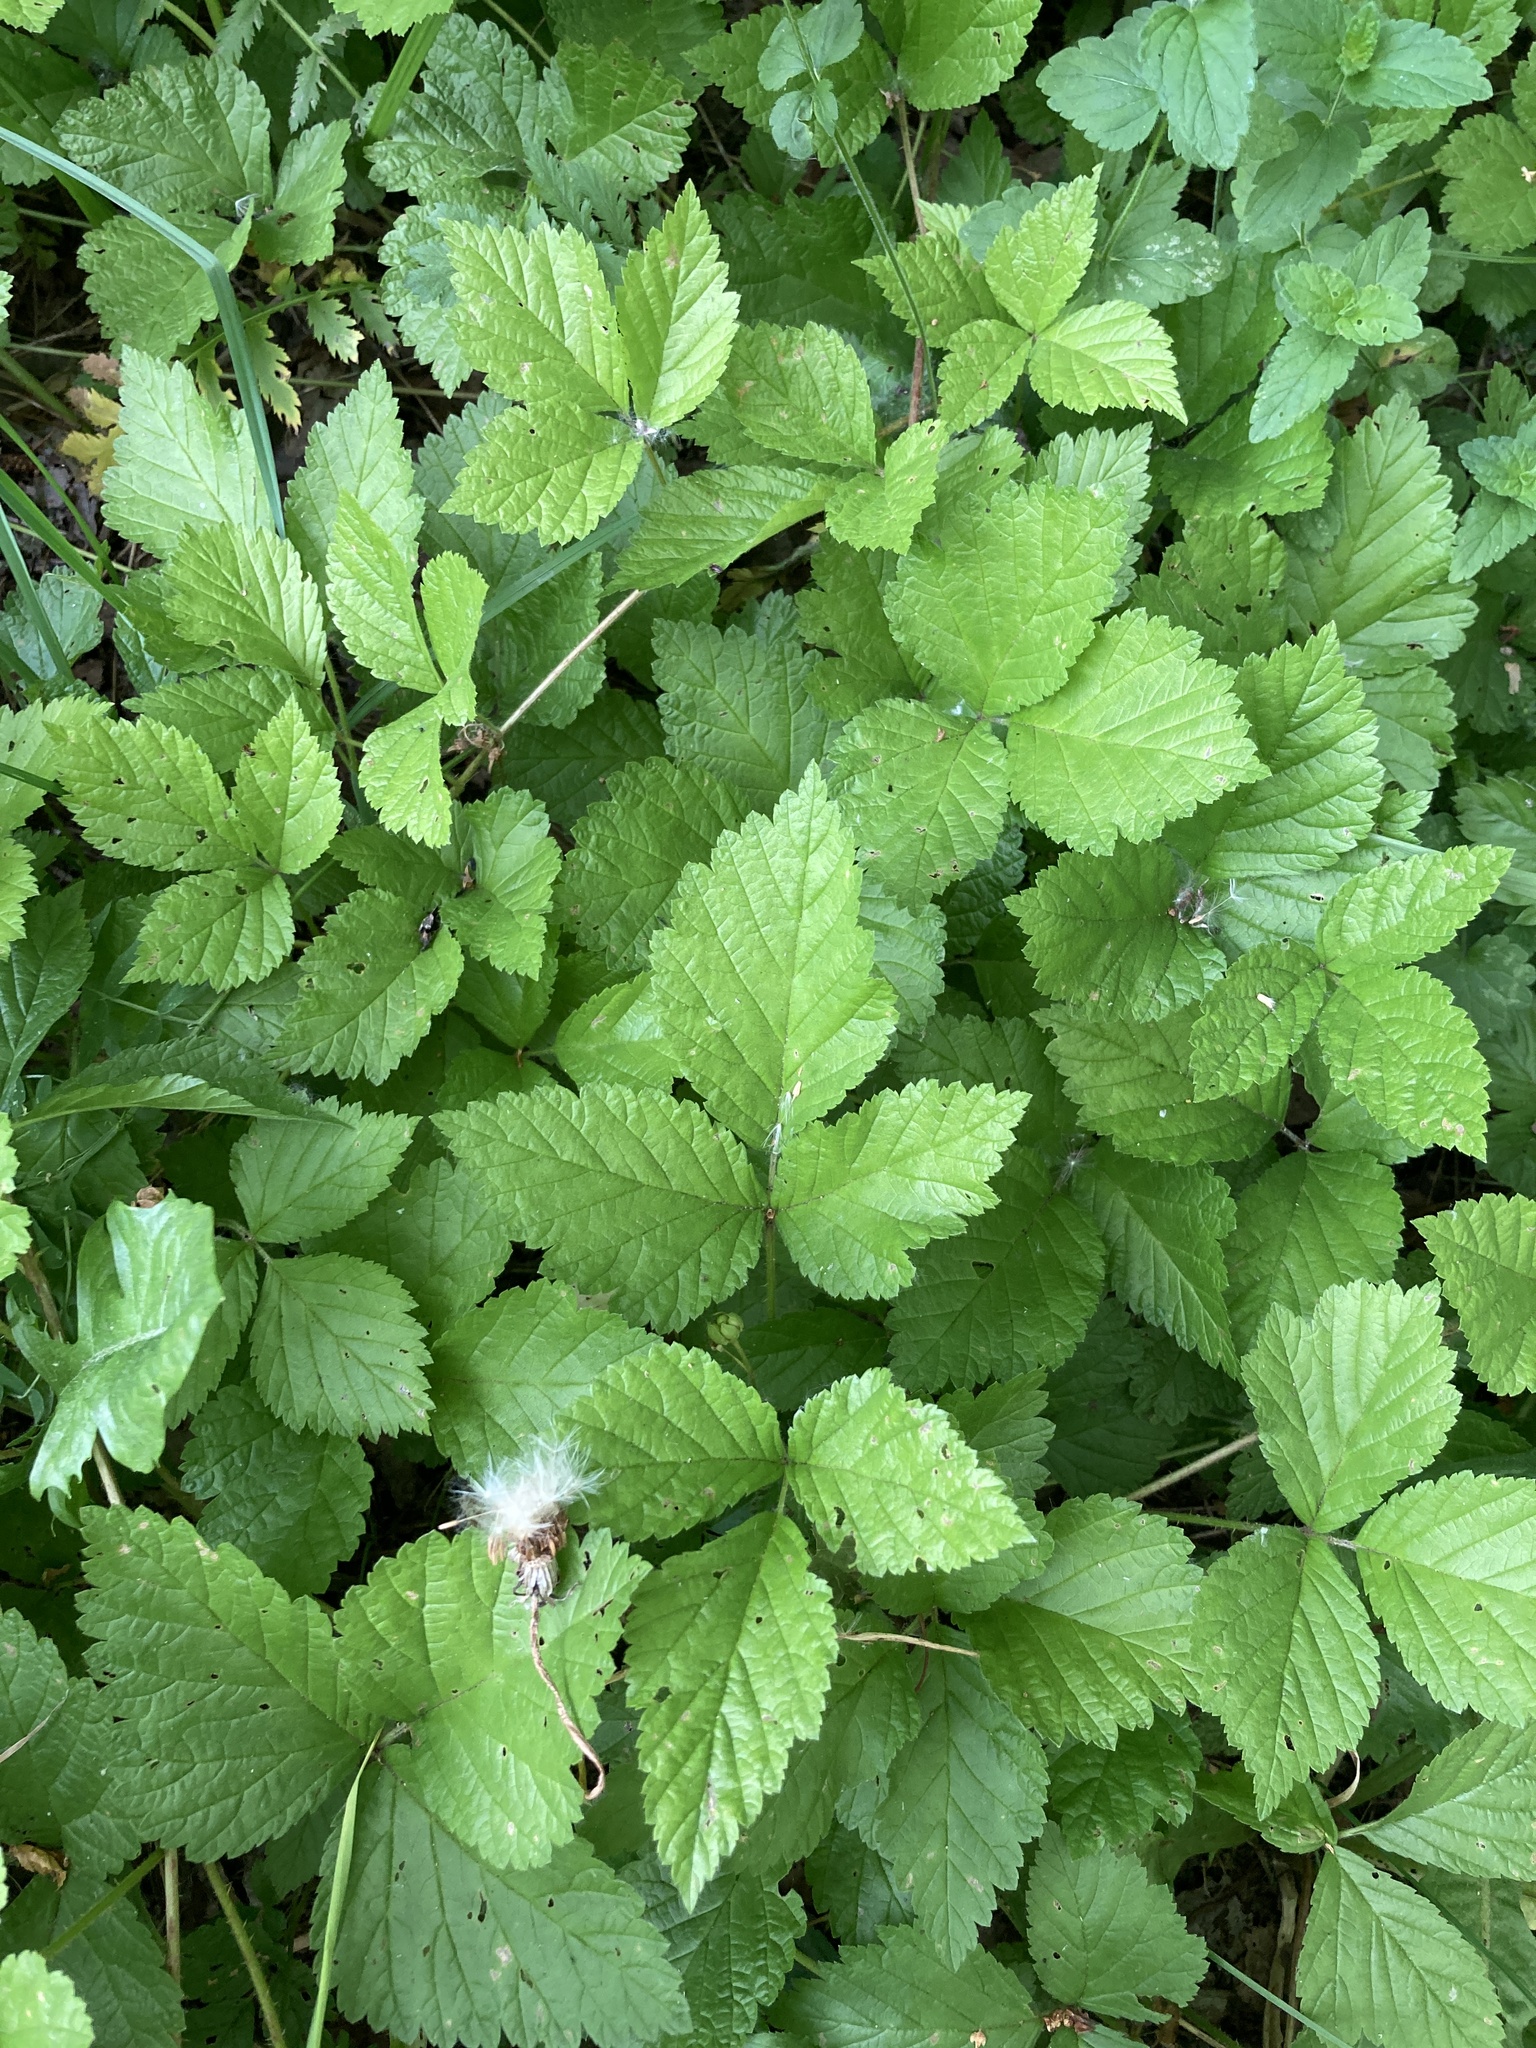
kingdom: Plantae
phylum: Tracheophyta
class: Magnoliopsida
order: Rosales
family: Rosaceae
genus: Rubus
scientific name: Rubus saxatilis
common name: Stone bramble
